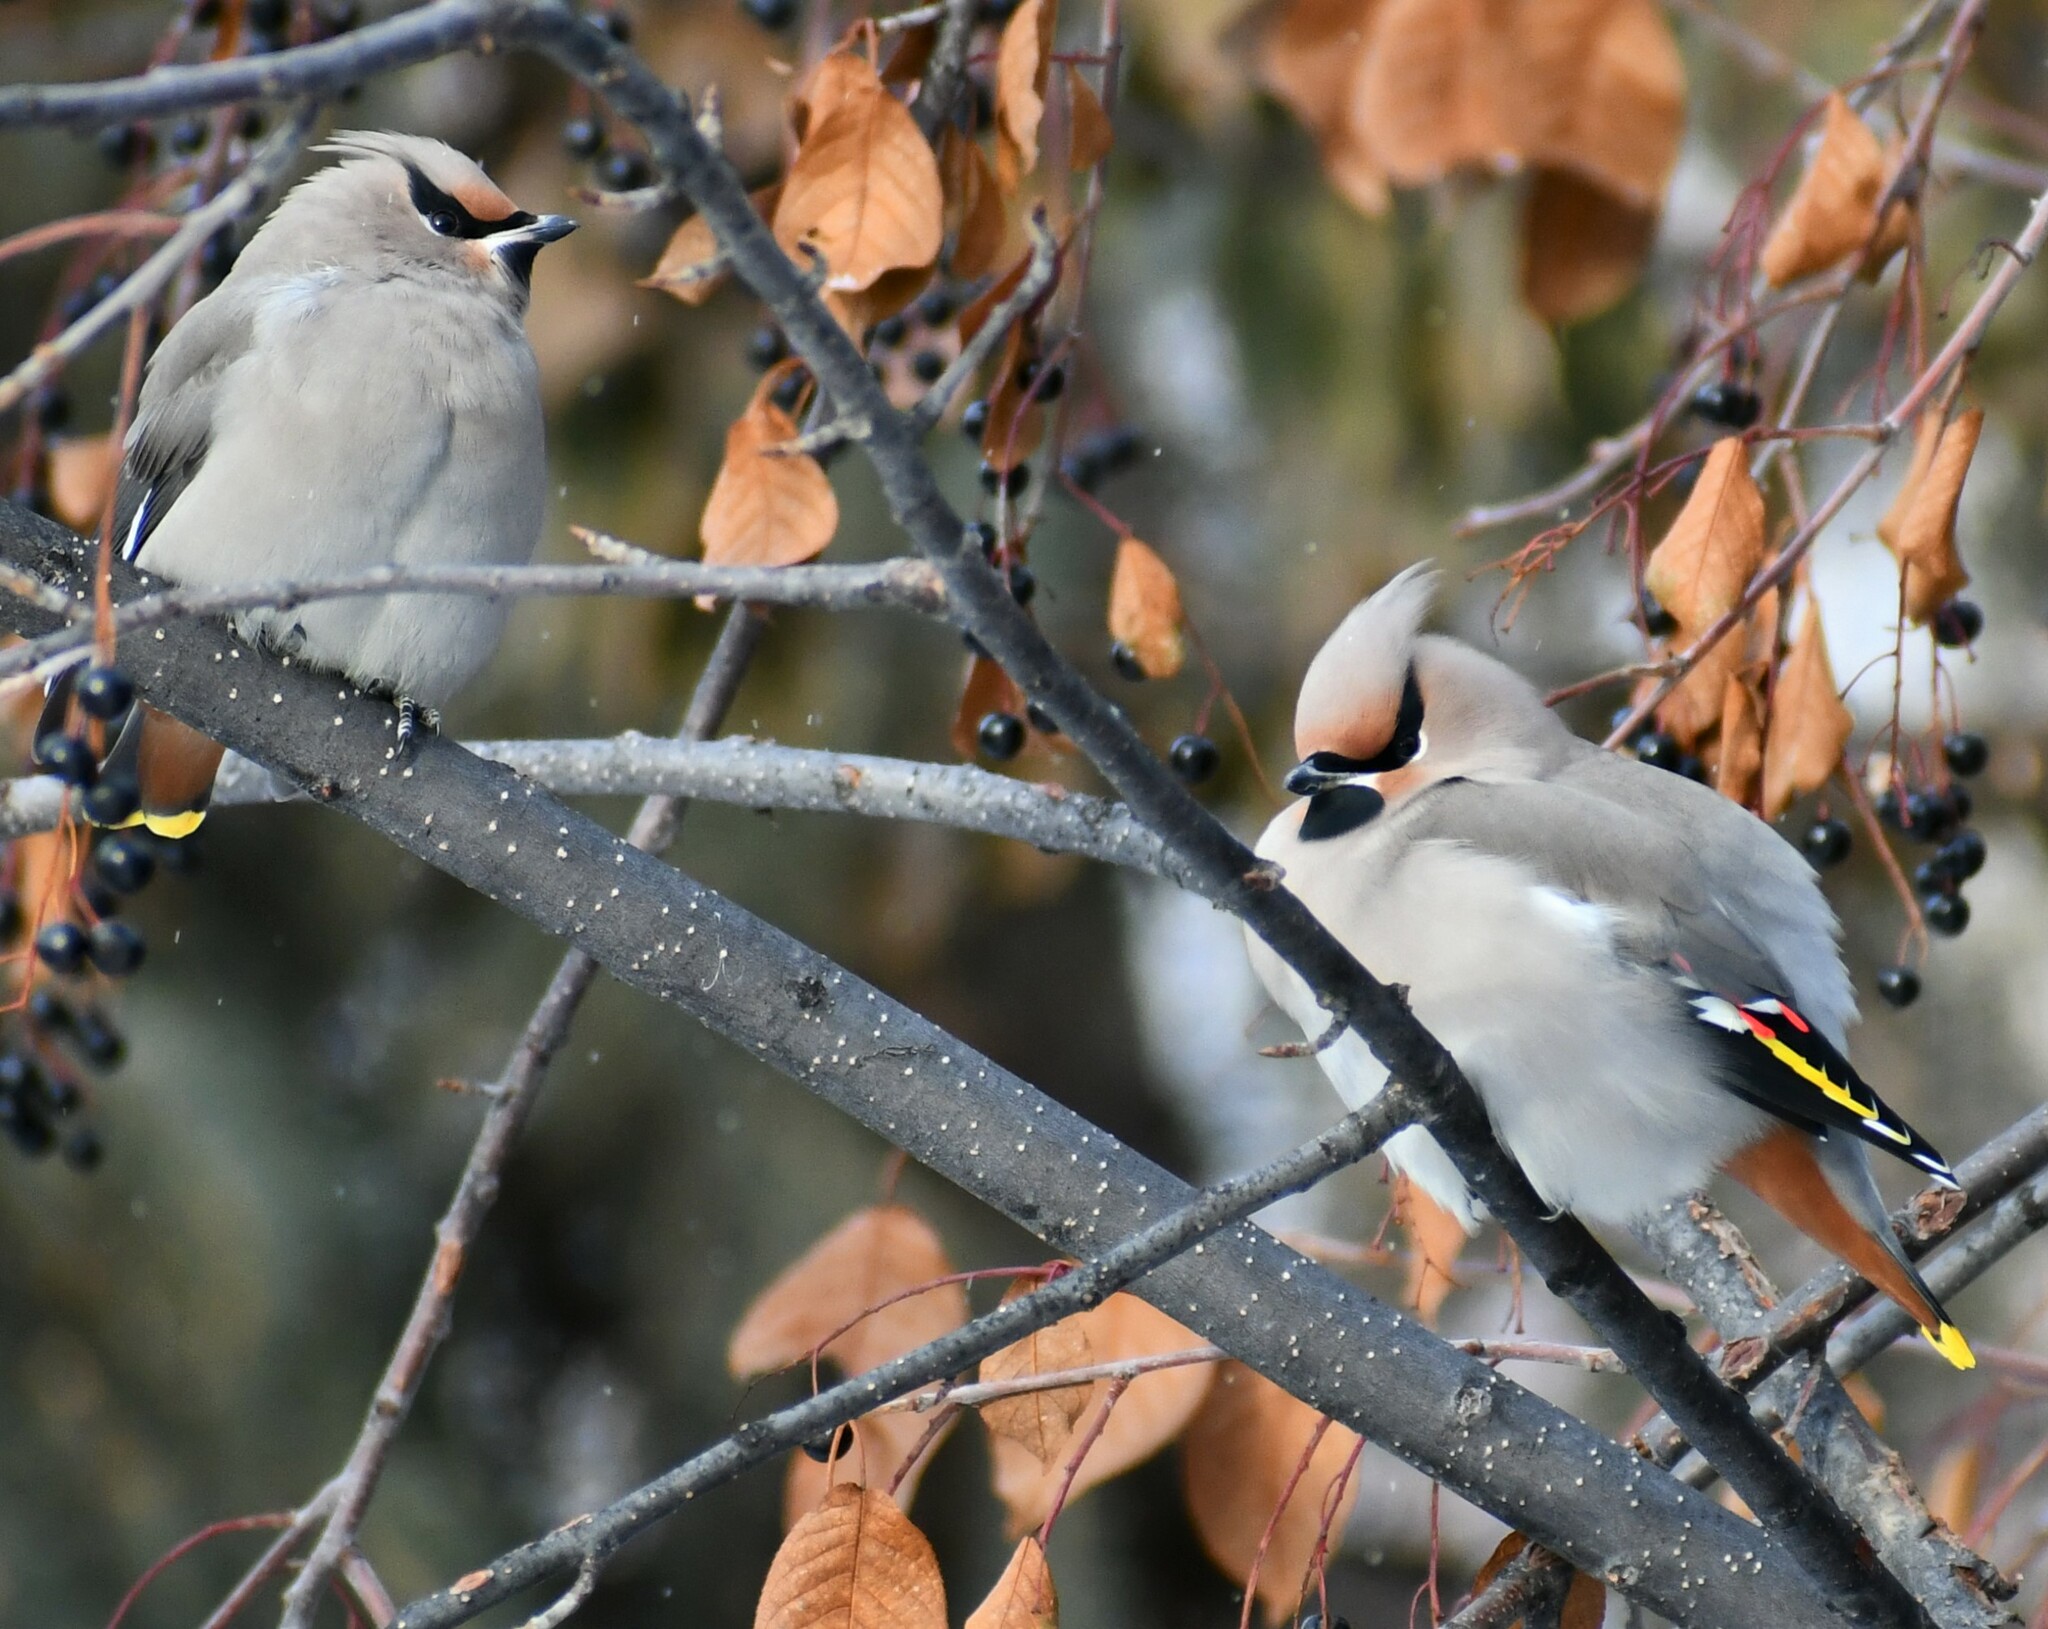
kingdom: Animalia
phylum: Chordata
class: Aves
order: Passeriformes
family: Bombycillidae
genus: Bombycilla
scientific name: Bombycilla garrulus
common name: Bohemian waxwing
